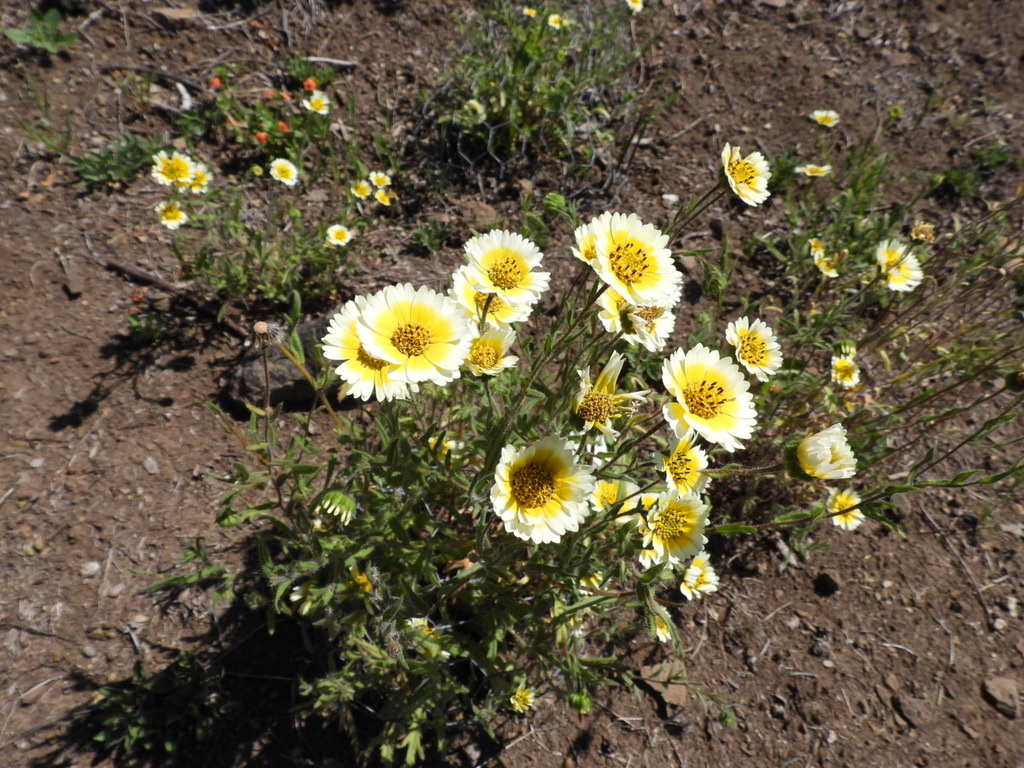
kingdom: Plantae
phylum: Tracheophyta
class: Magnoliopsida
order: Asterales
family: Asteraceae
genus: Layia
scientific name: Layia platyglossa
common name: Tidy-tips
